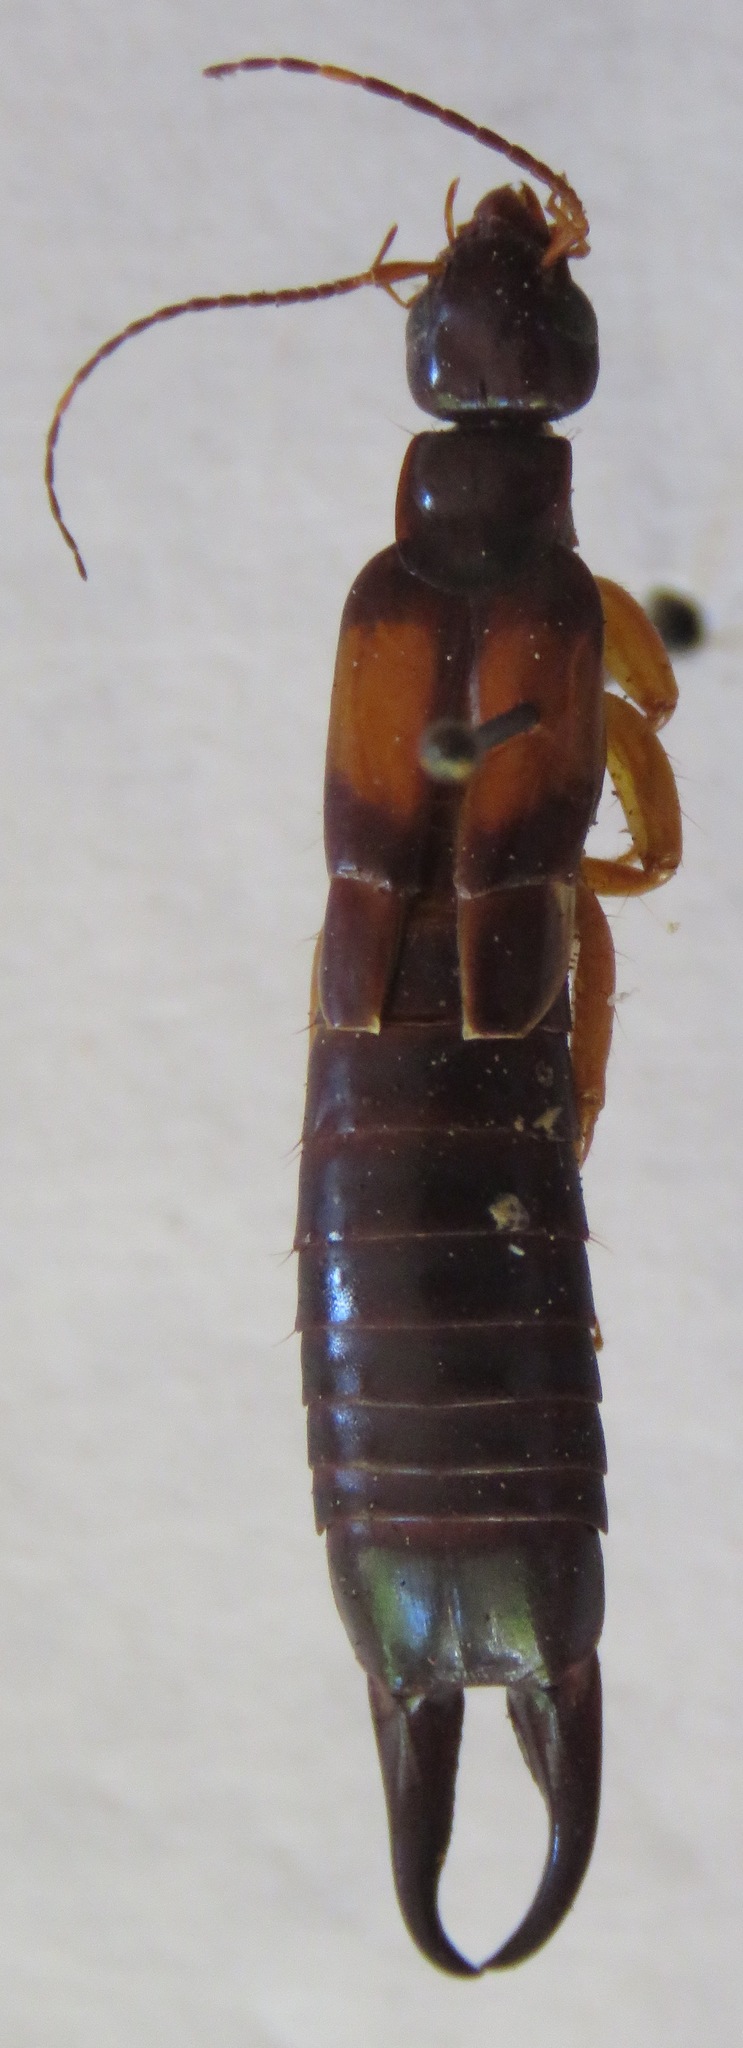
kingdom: Animalia
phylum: Arthropoda
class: Insecta
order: Dermaptera
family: Anisolabididae
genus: Carcinophora
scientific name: Carcinophora americana
